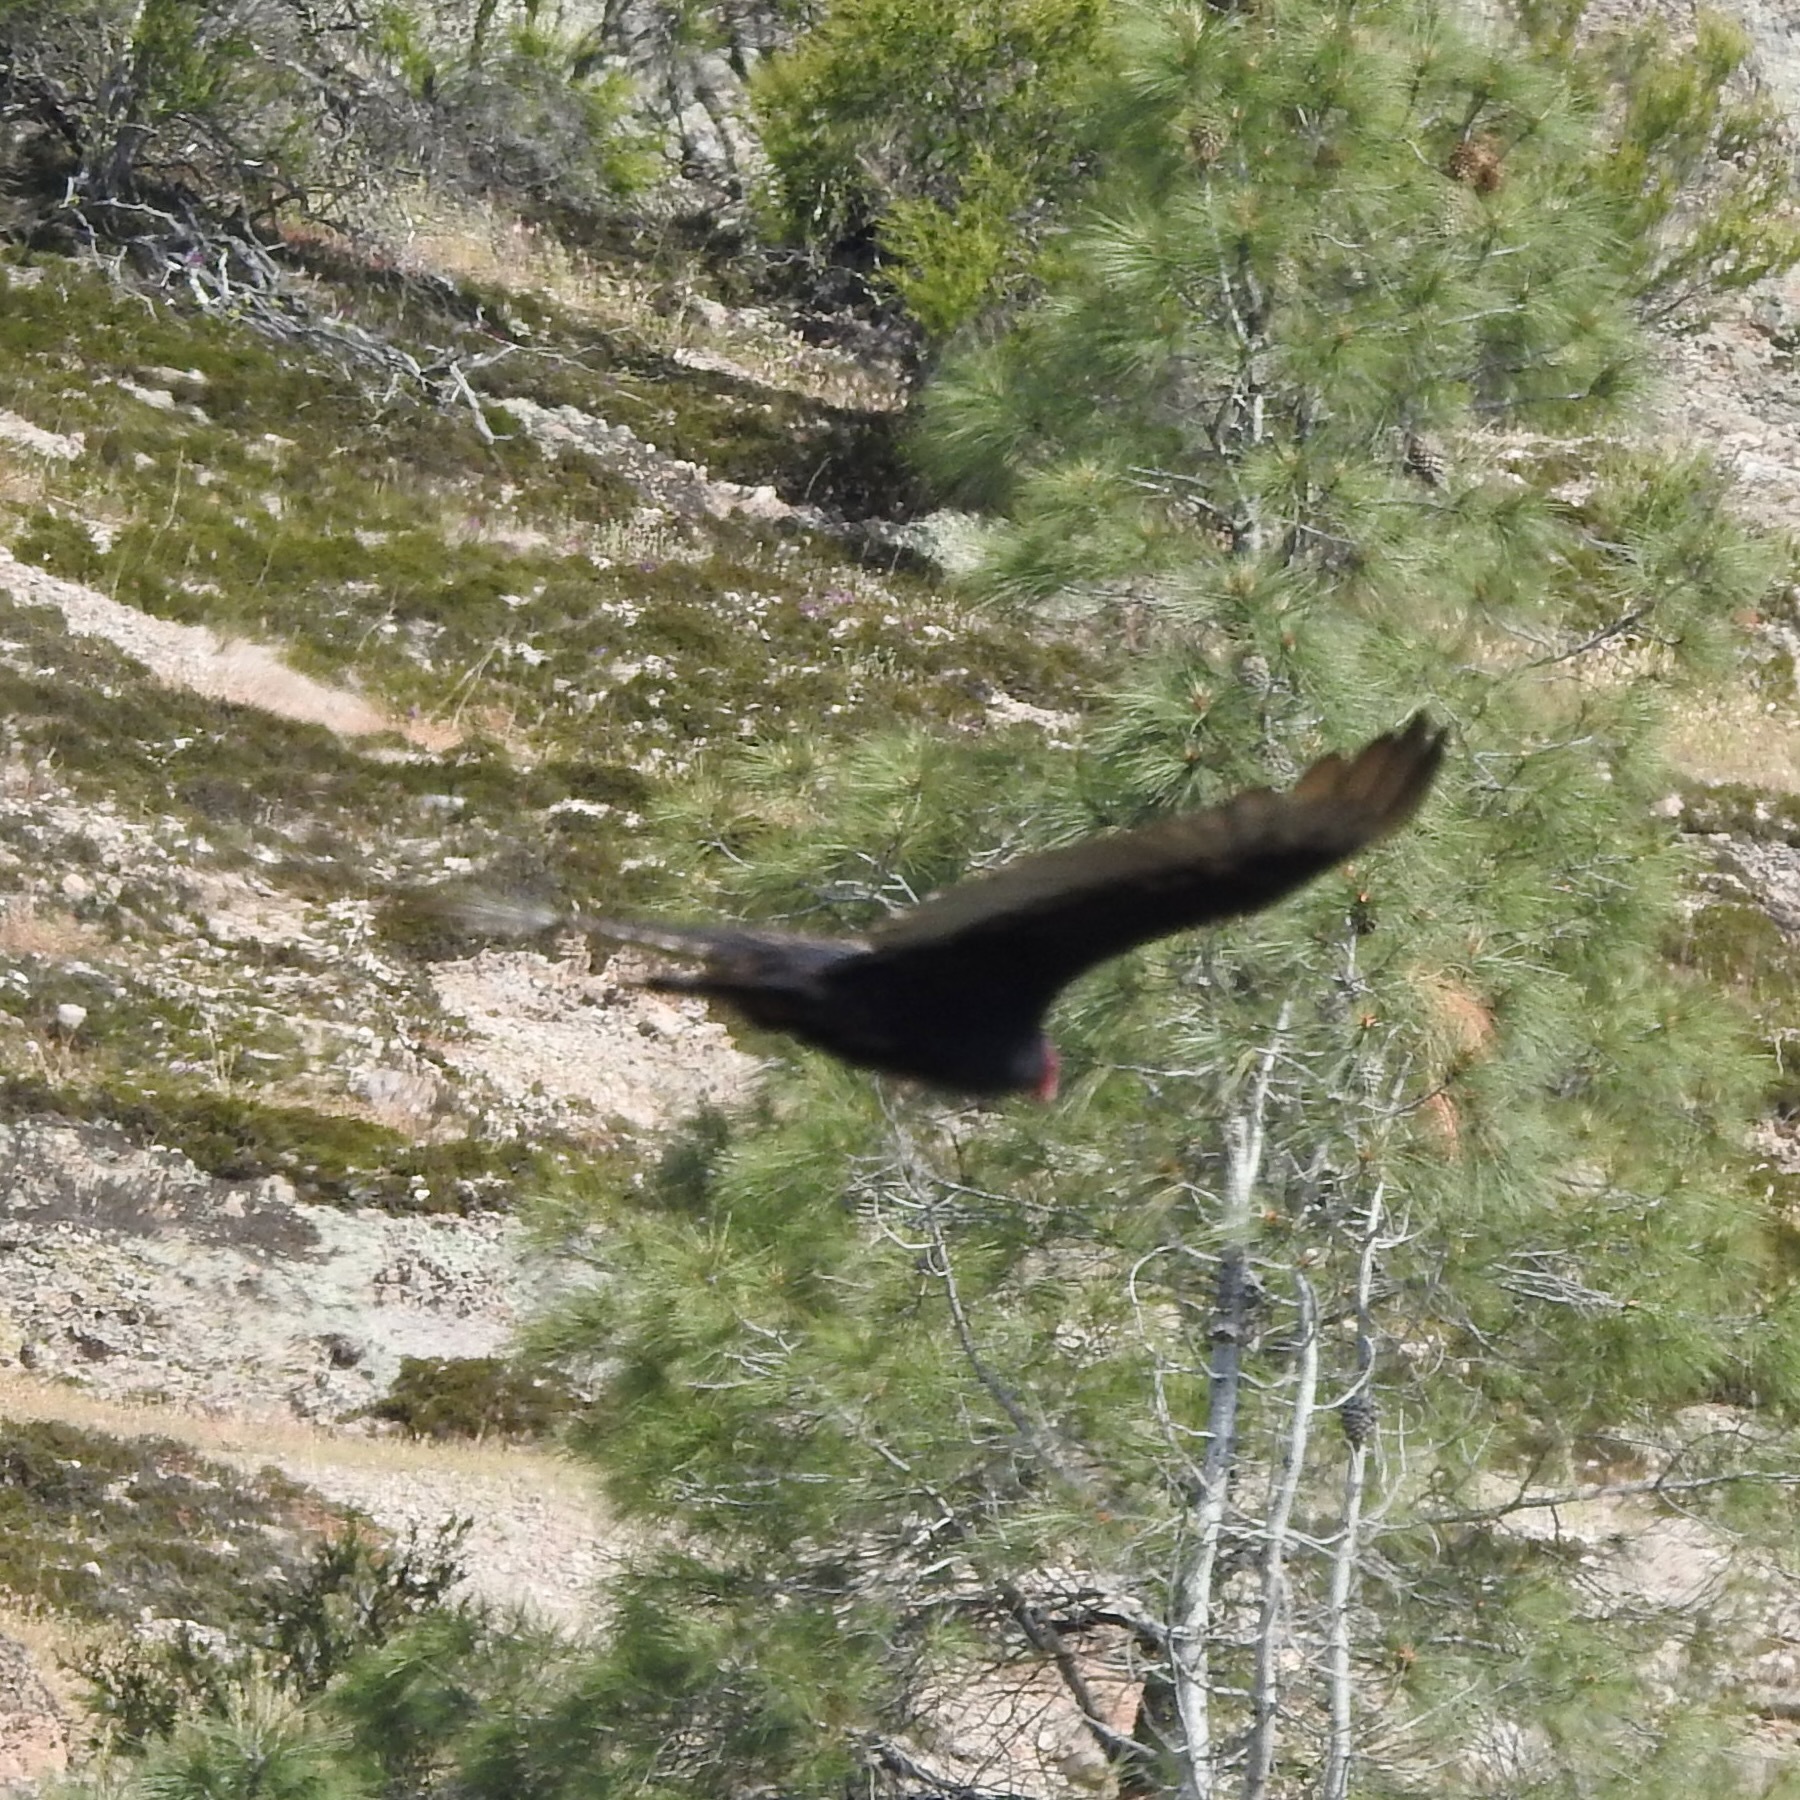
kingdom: Animalia
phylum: Chordata
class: Aves
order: Accipitriformes
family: Cathartidae
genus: Cathartes
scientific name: Cathartes aura
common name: Turkey vulture
